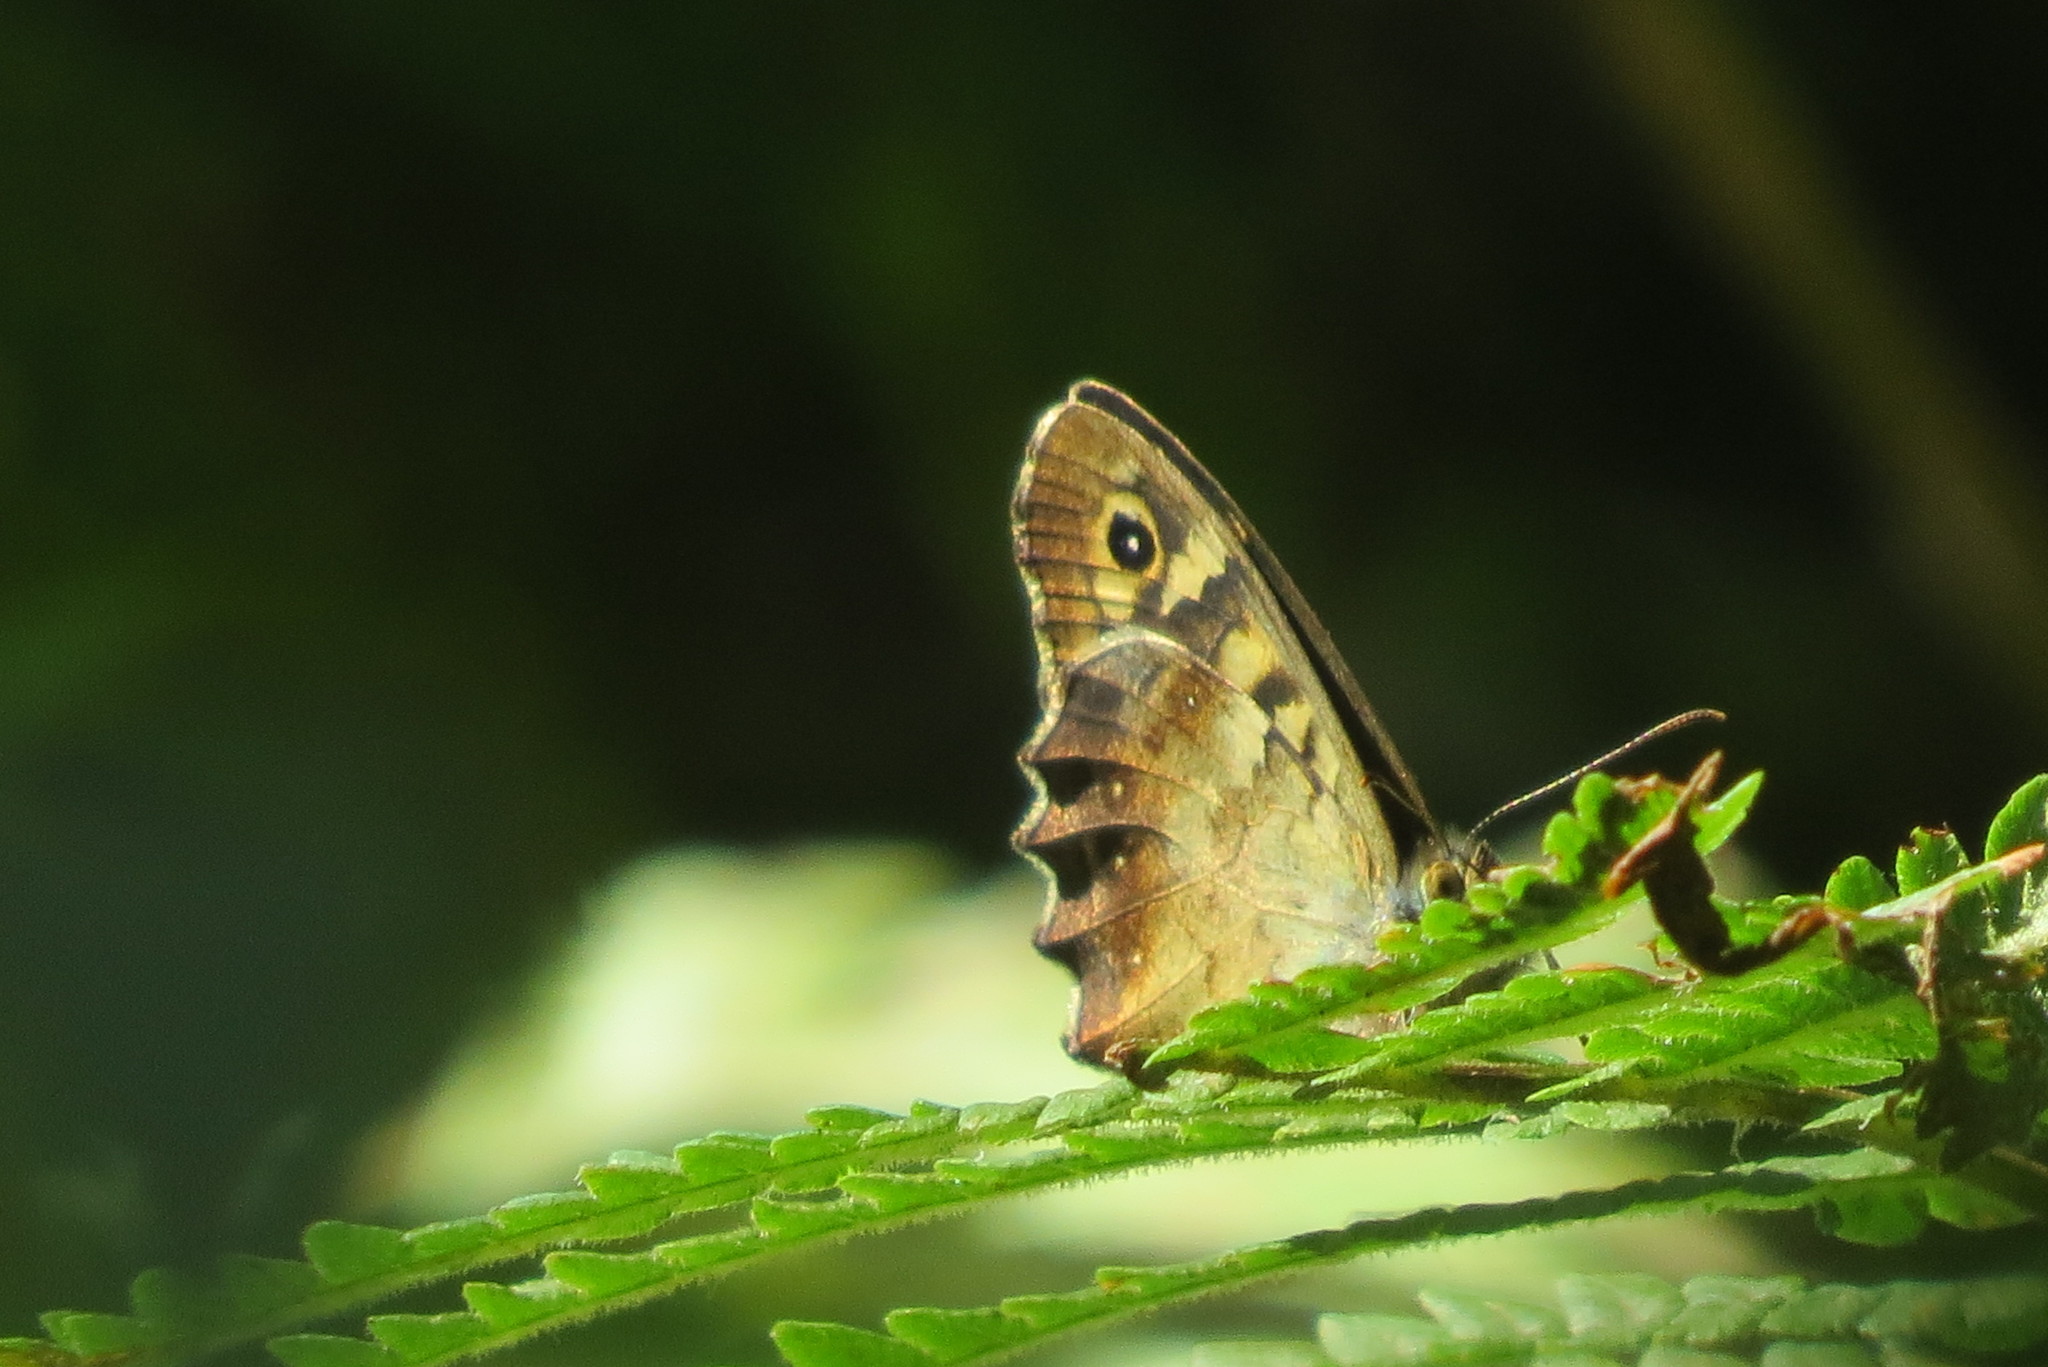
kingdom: Animalia
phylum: Arthropoda
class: Insecta
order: Lepidoptera
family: Nymphalidae
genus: Pararge
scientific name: Pararge aegeria
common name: Speckled wood
